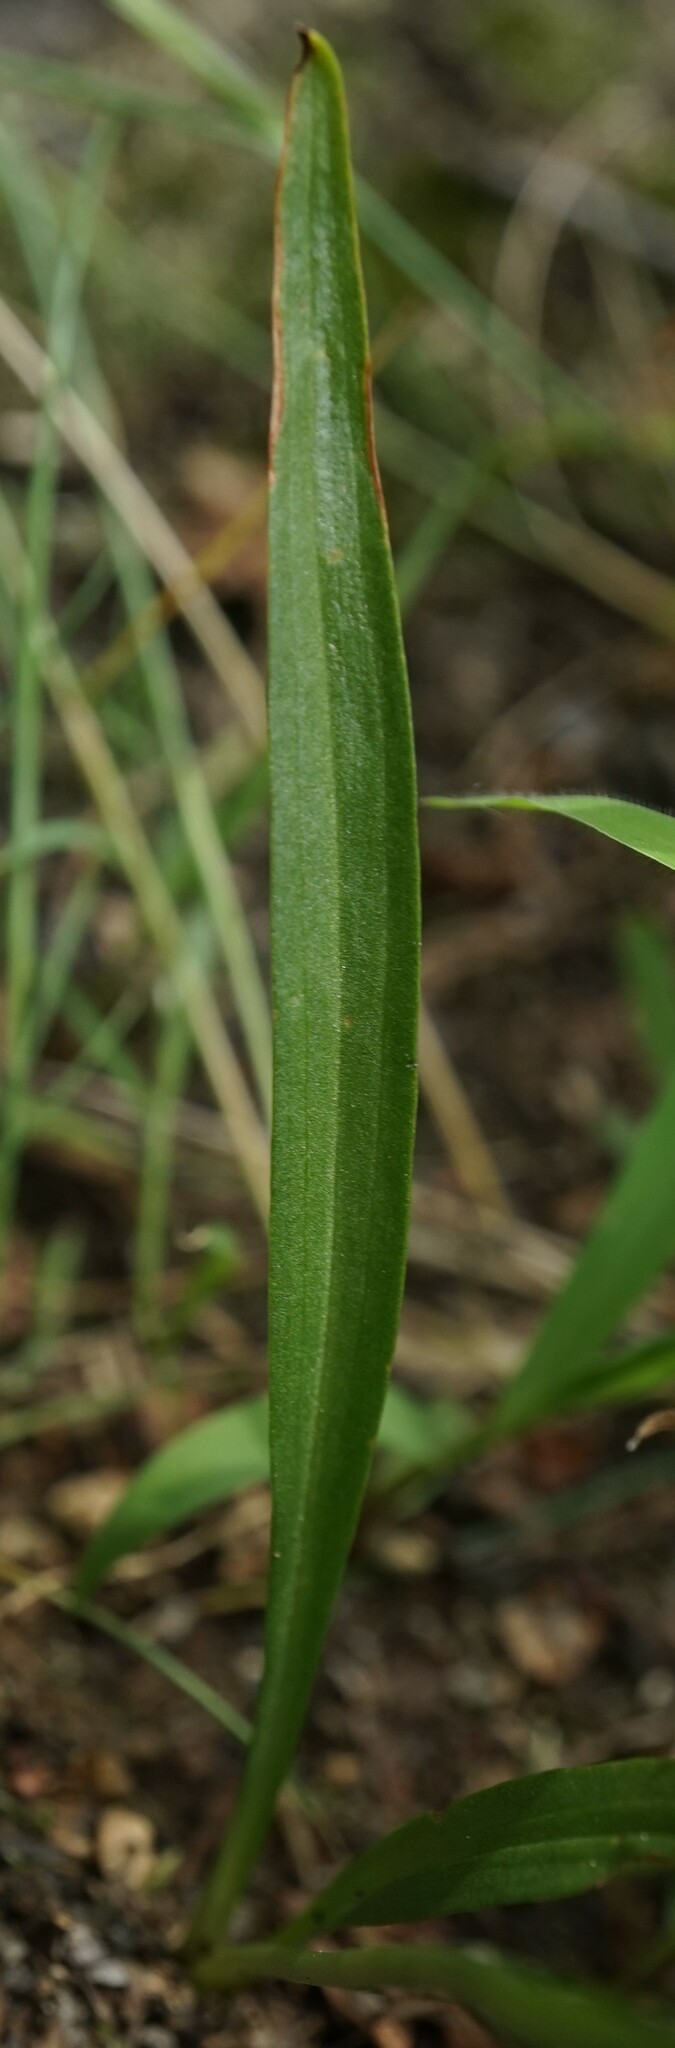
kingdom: Plantae
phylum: Tracheophyta
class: Liliopsida
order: Asparagales
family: Orchidaceae
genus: Spiranthes
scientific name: Spiranthes australis
